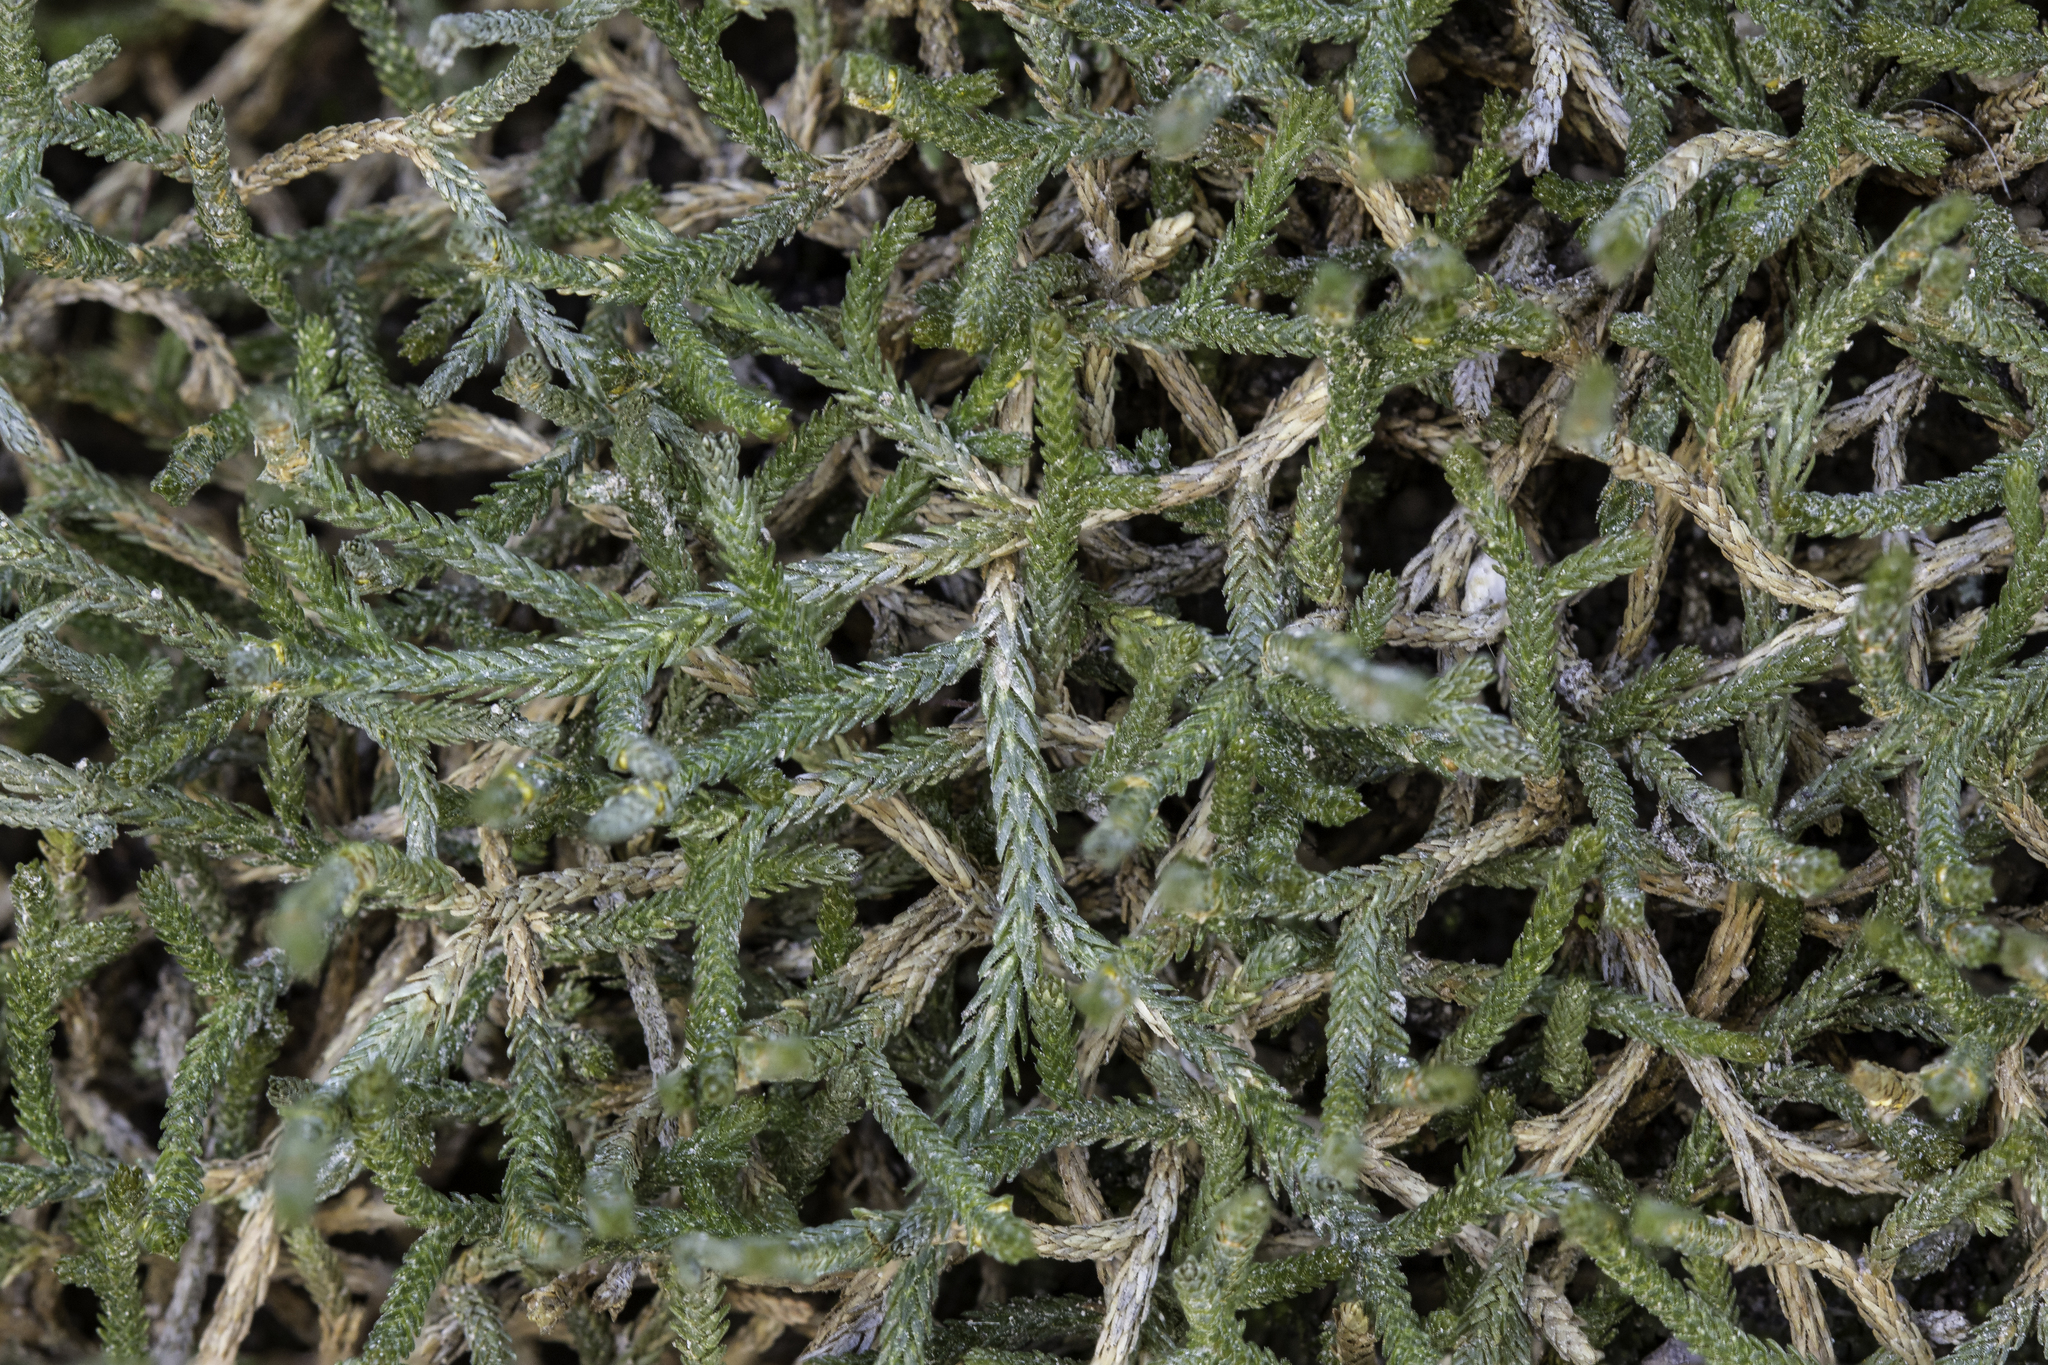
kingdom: Plantae
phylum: Tracheophyta
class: Lycopodiopsida
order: Selaginellales
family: Selaginellaceae
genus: Selaginella
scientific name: Selaginella mutica
